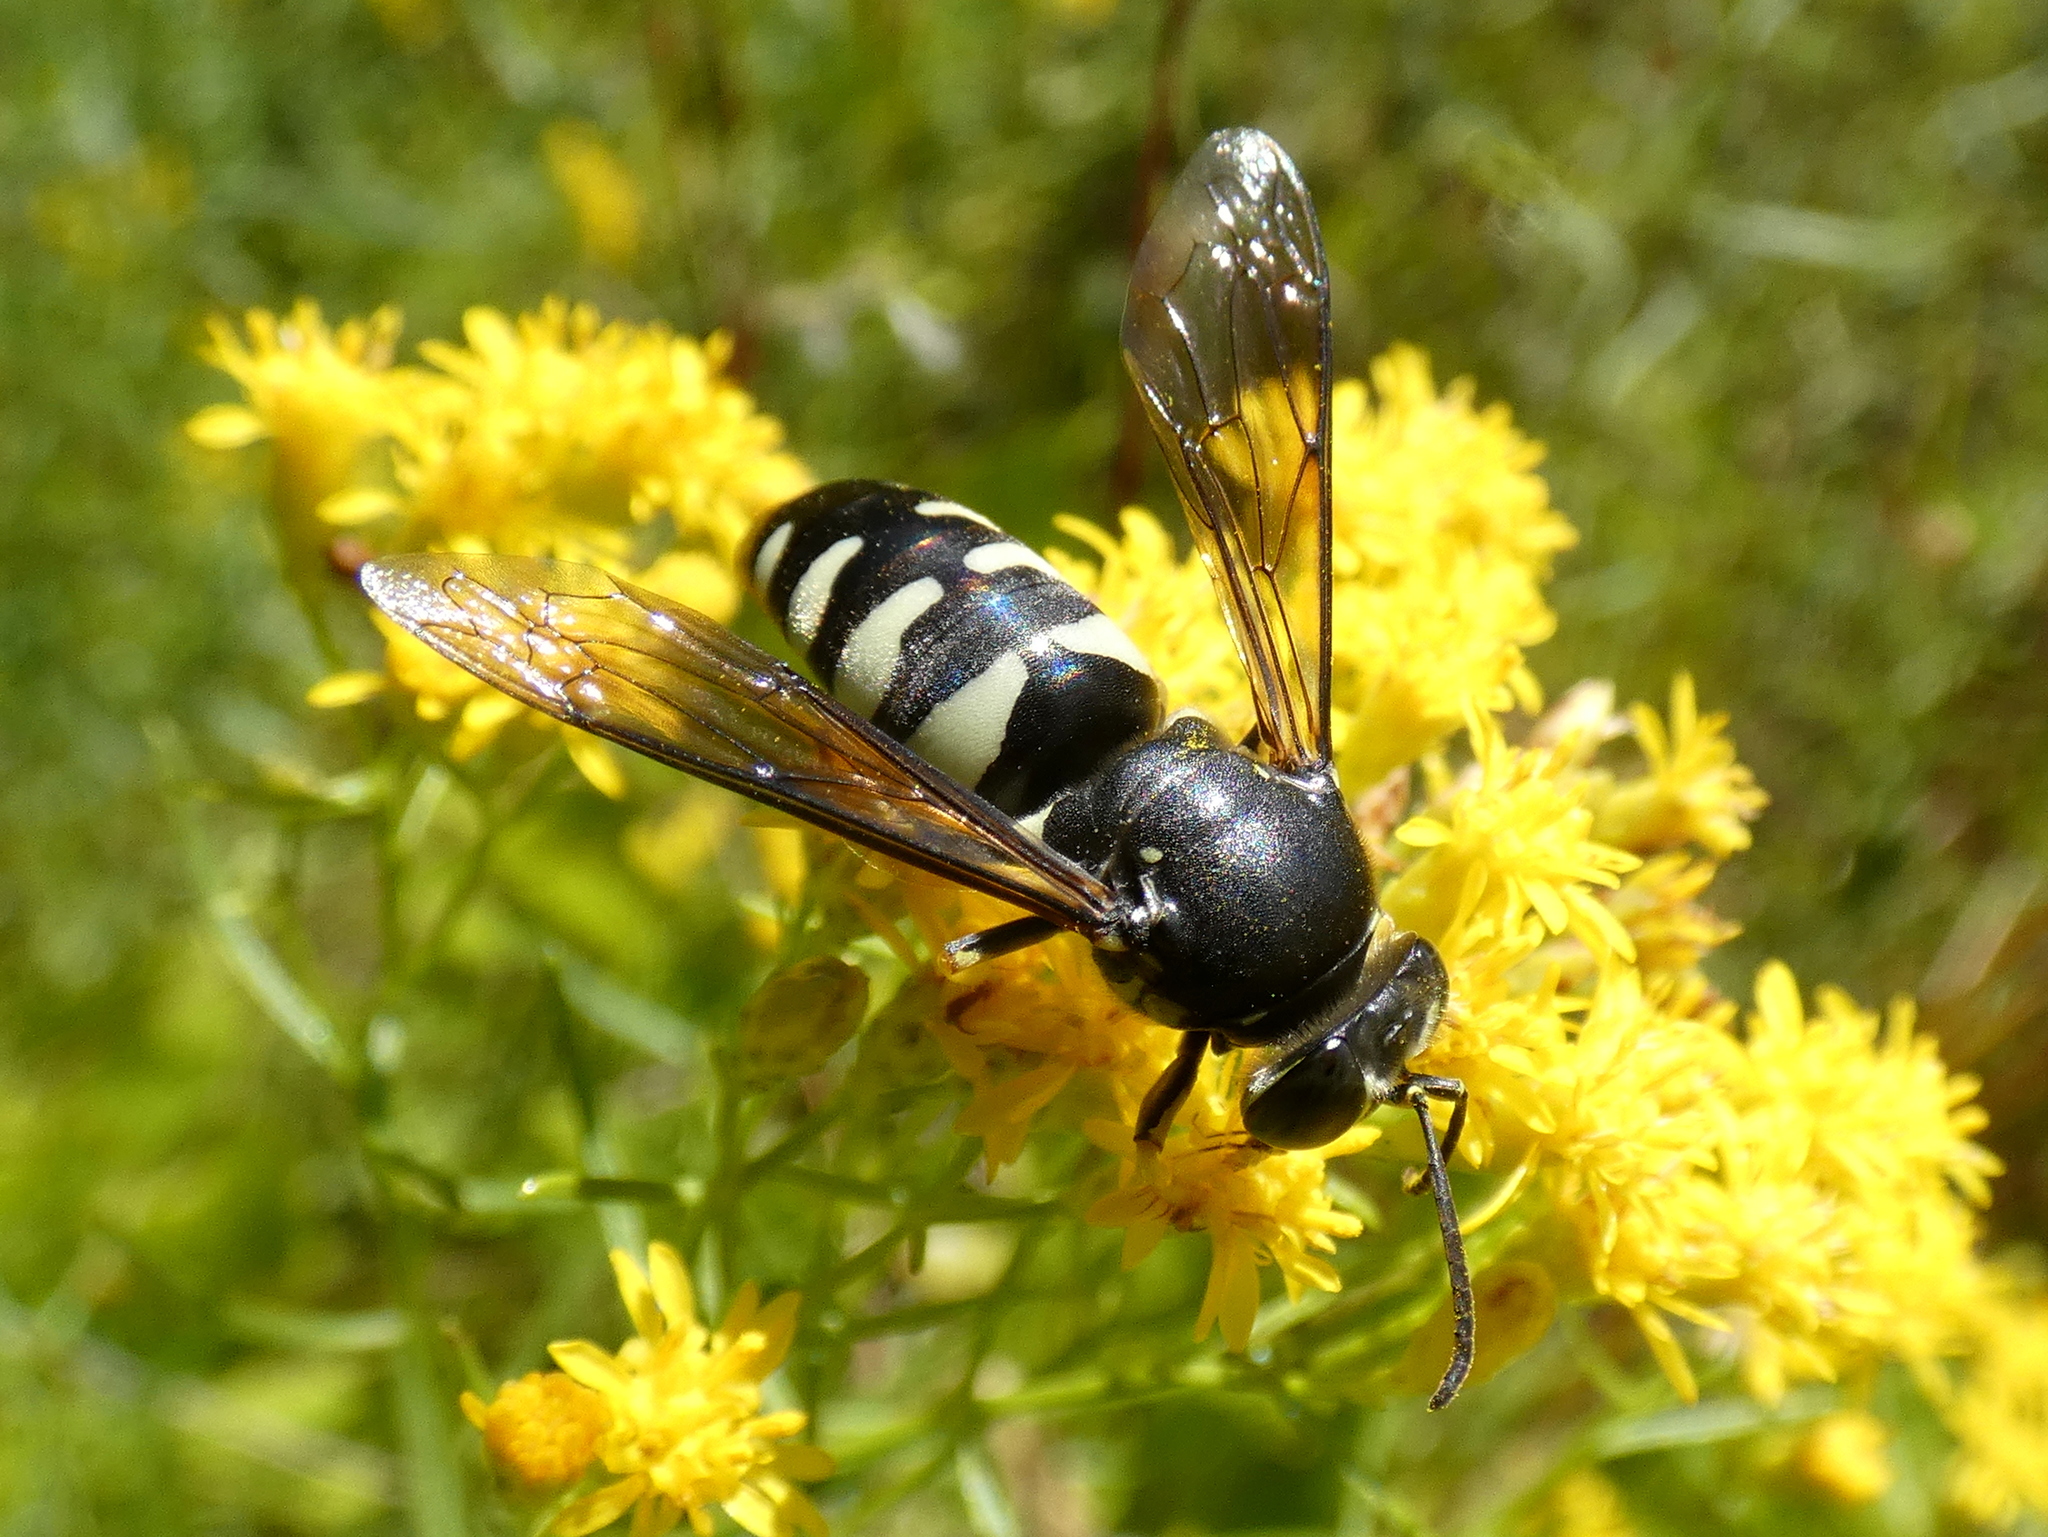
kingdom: Animalia
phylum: Arthropoda
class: Insecta
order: Hymenoptera
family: Crabronidae
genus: Bicyrtes
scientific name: Bicyrtes quadrifasciatus
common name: Four-banded stink bug hunter wasp
